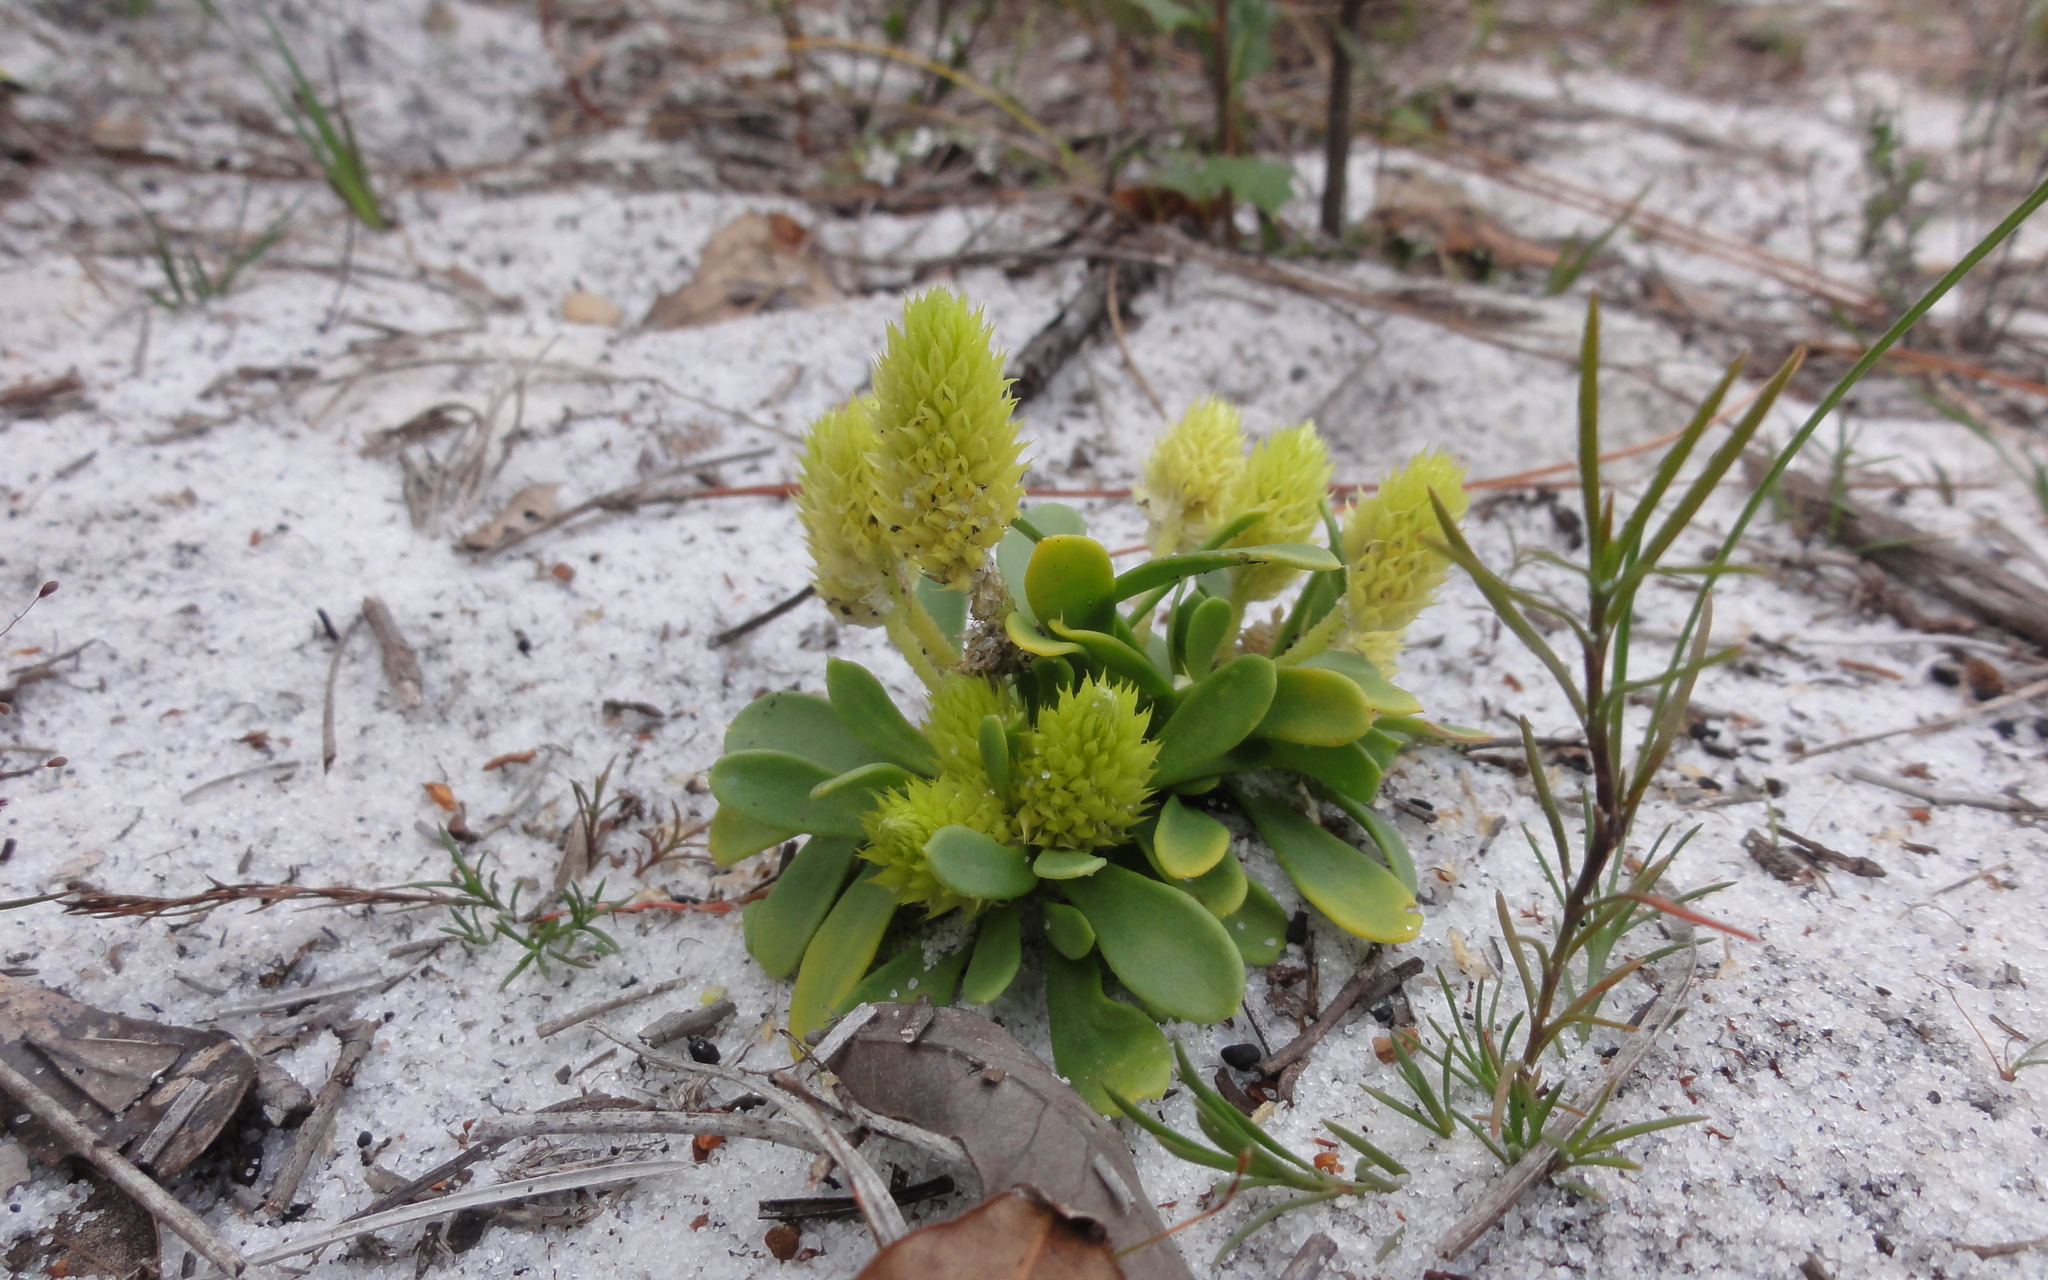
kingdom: Plantae
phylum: Tracheophyta
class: Magnoliopsida
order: Fabales
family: Polygalaceae
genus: Polygala
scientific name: Polygala nana
